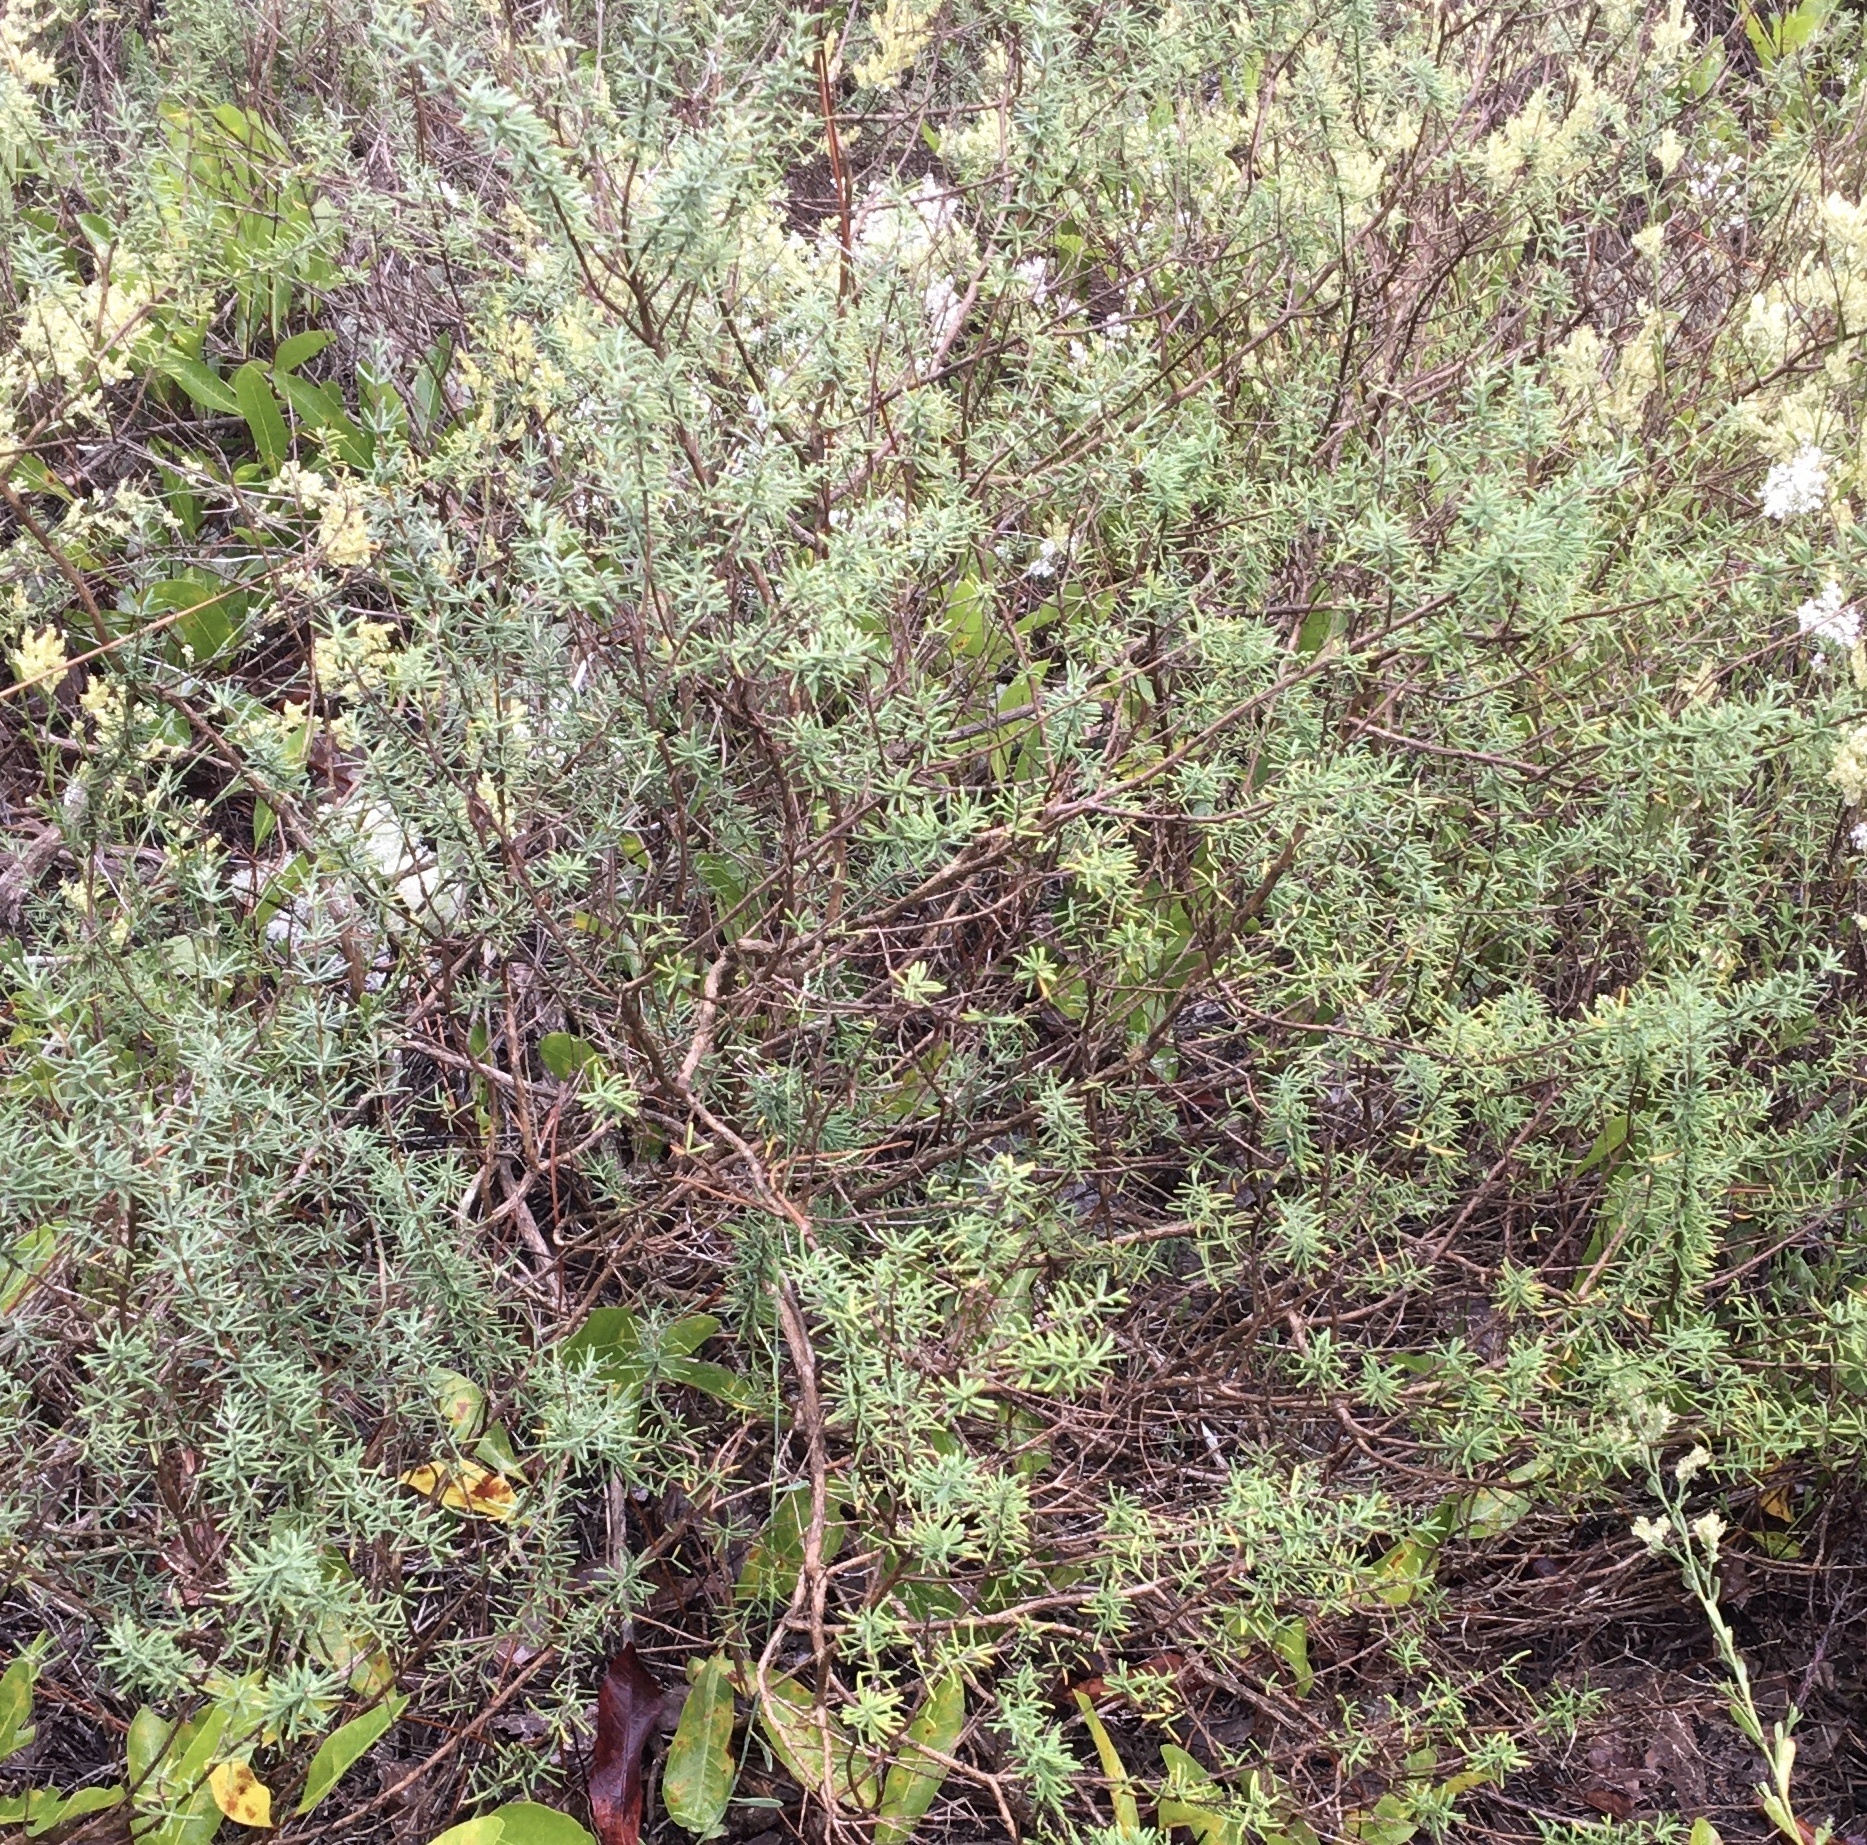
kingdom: Plantae
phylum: Tracheophyta
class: Magnoliopsida
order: Lamiales
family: Lamiaceae
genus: Conradina
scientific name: Conradina canescens
